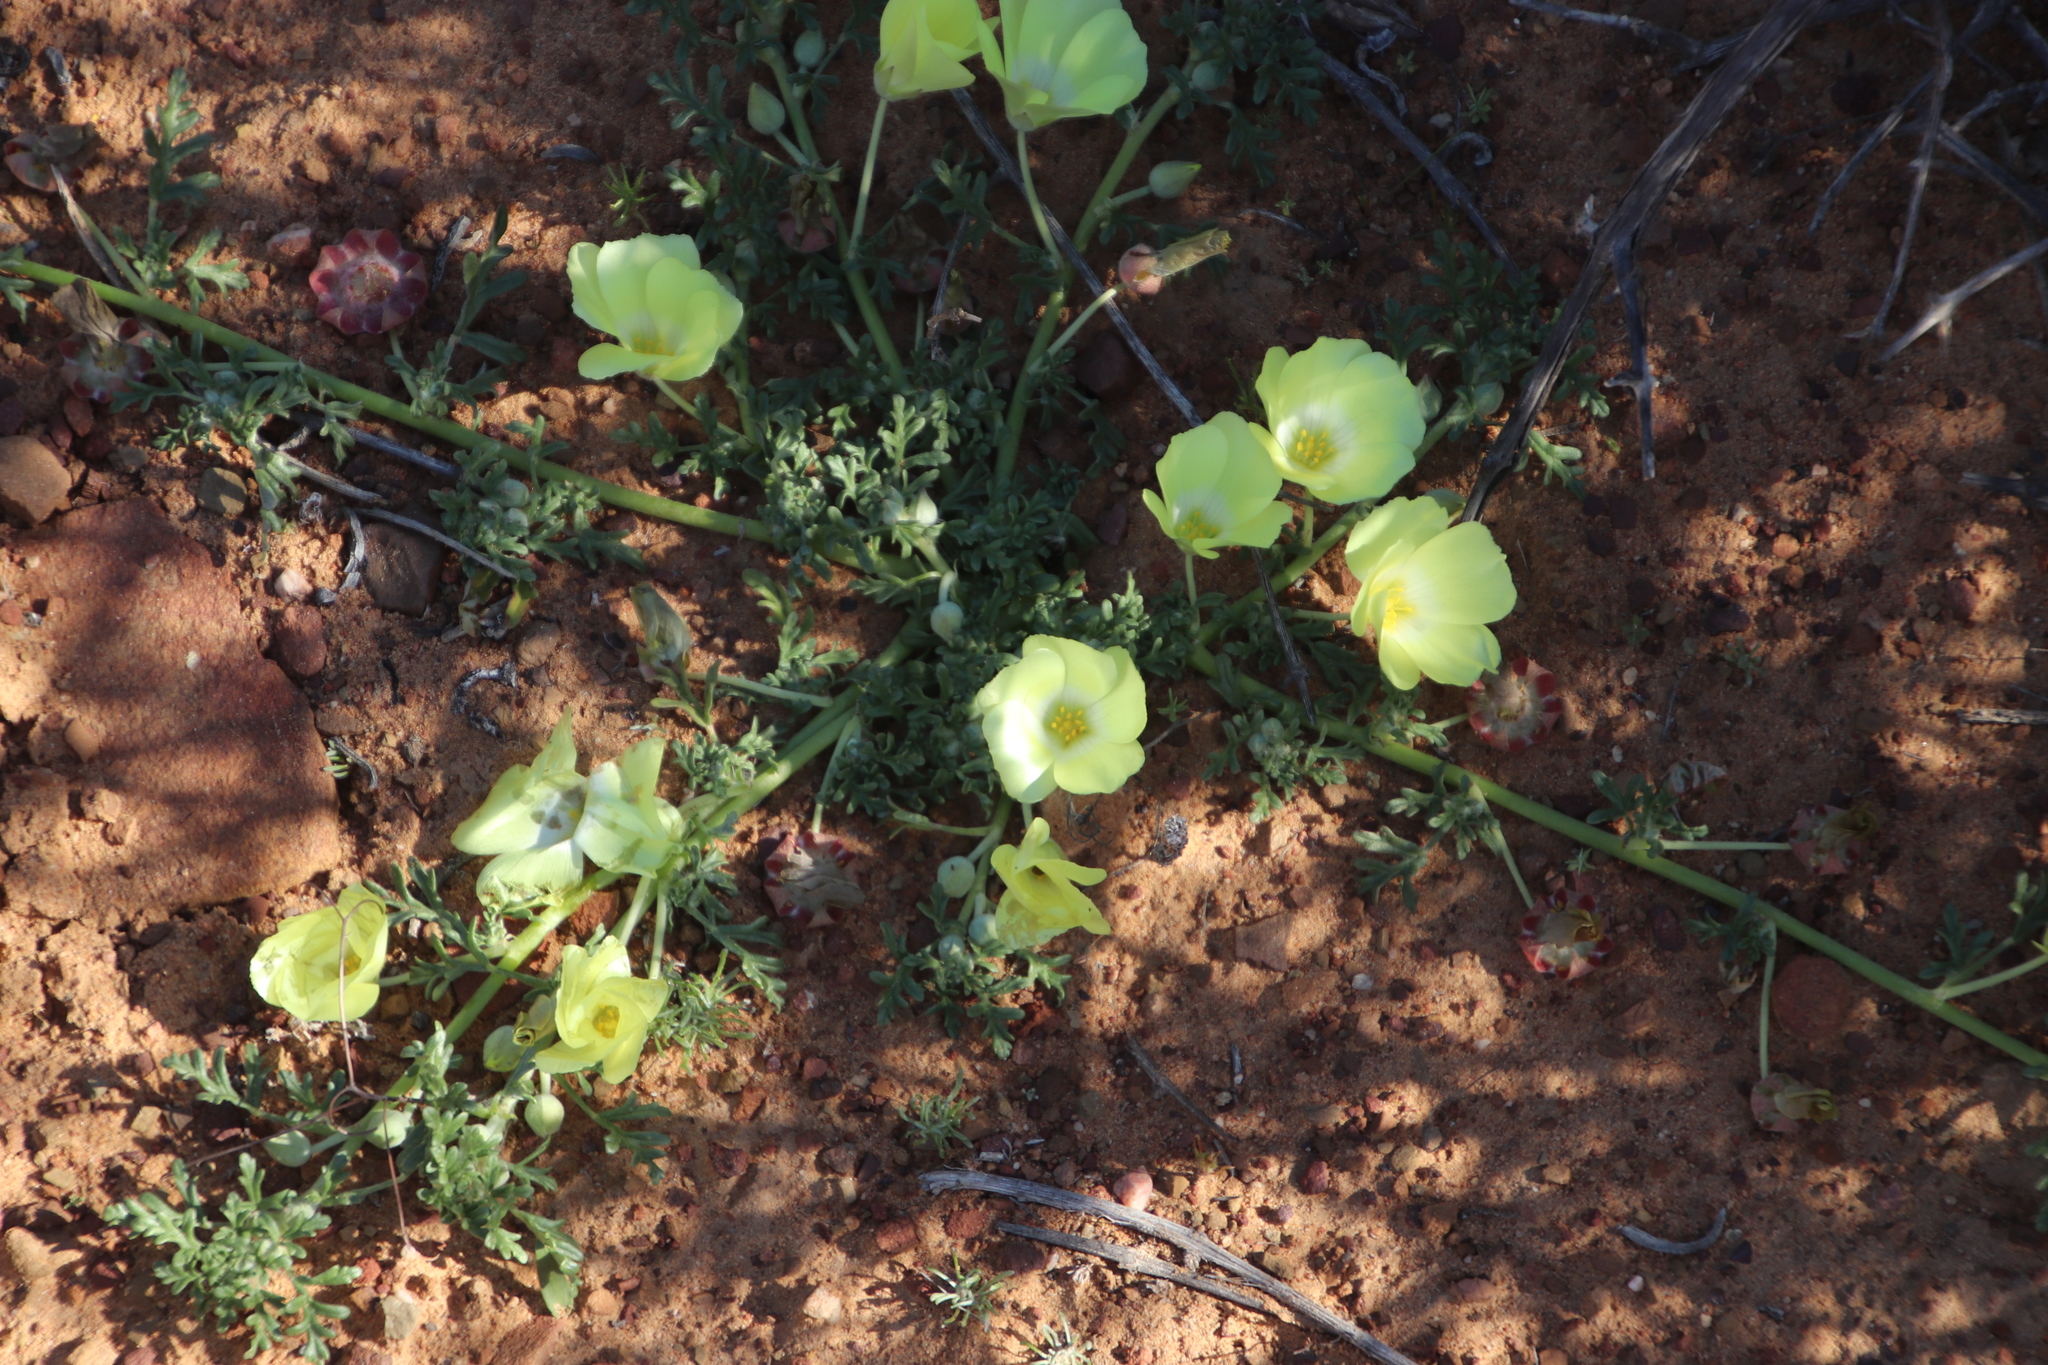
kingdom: Plantae
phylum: Tracheophyta
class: Magnoliopsida
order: Malvales
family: Neuradaceae
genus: Grielum
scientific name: Grielum humifusum
